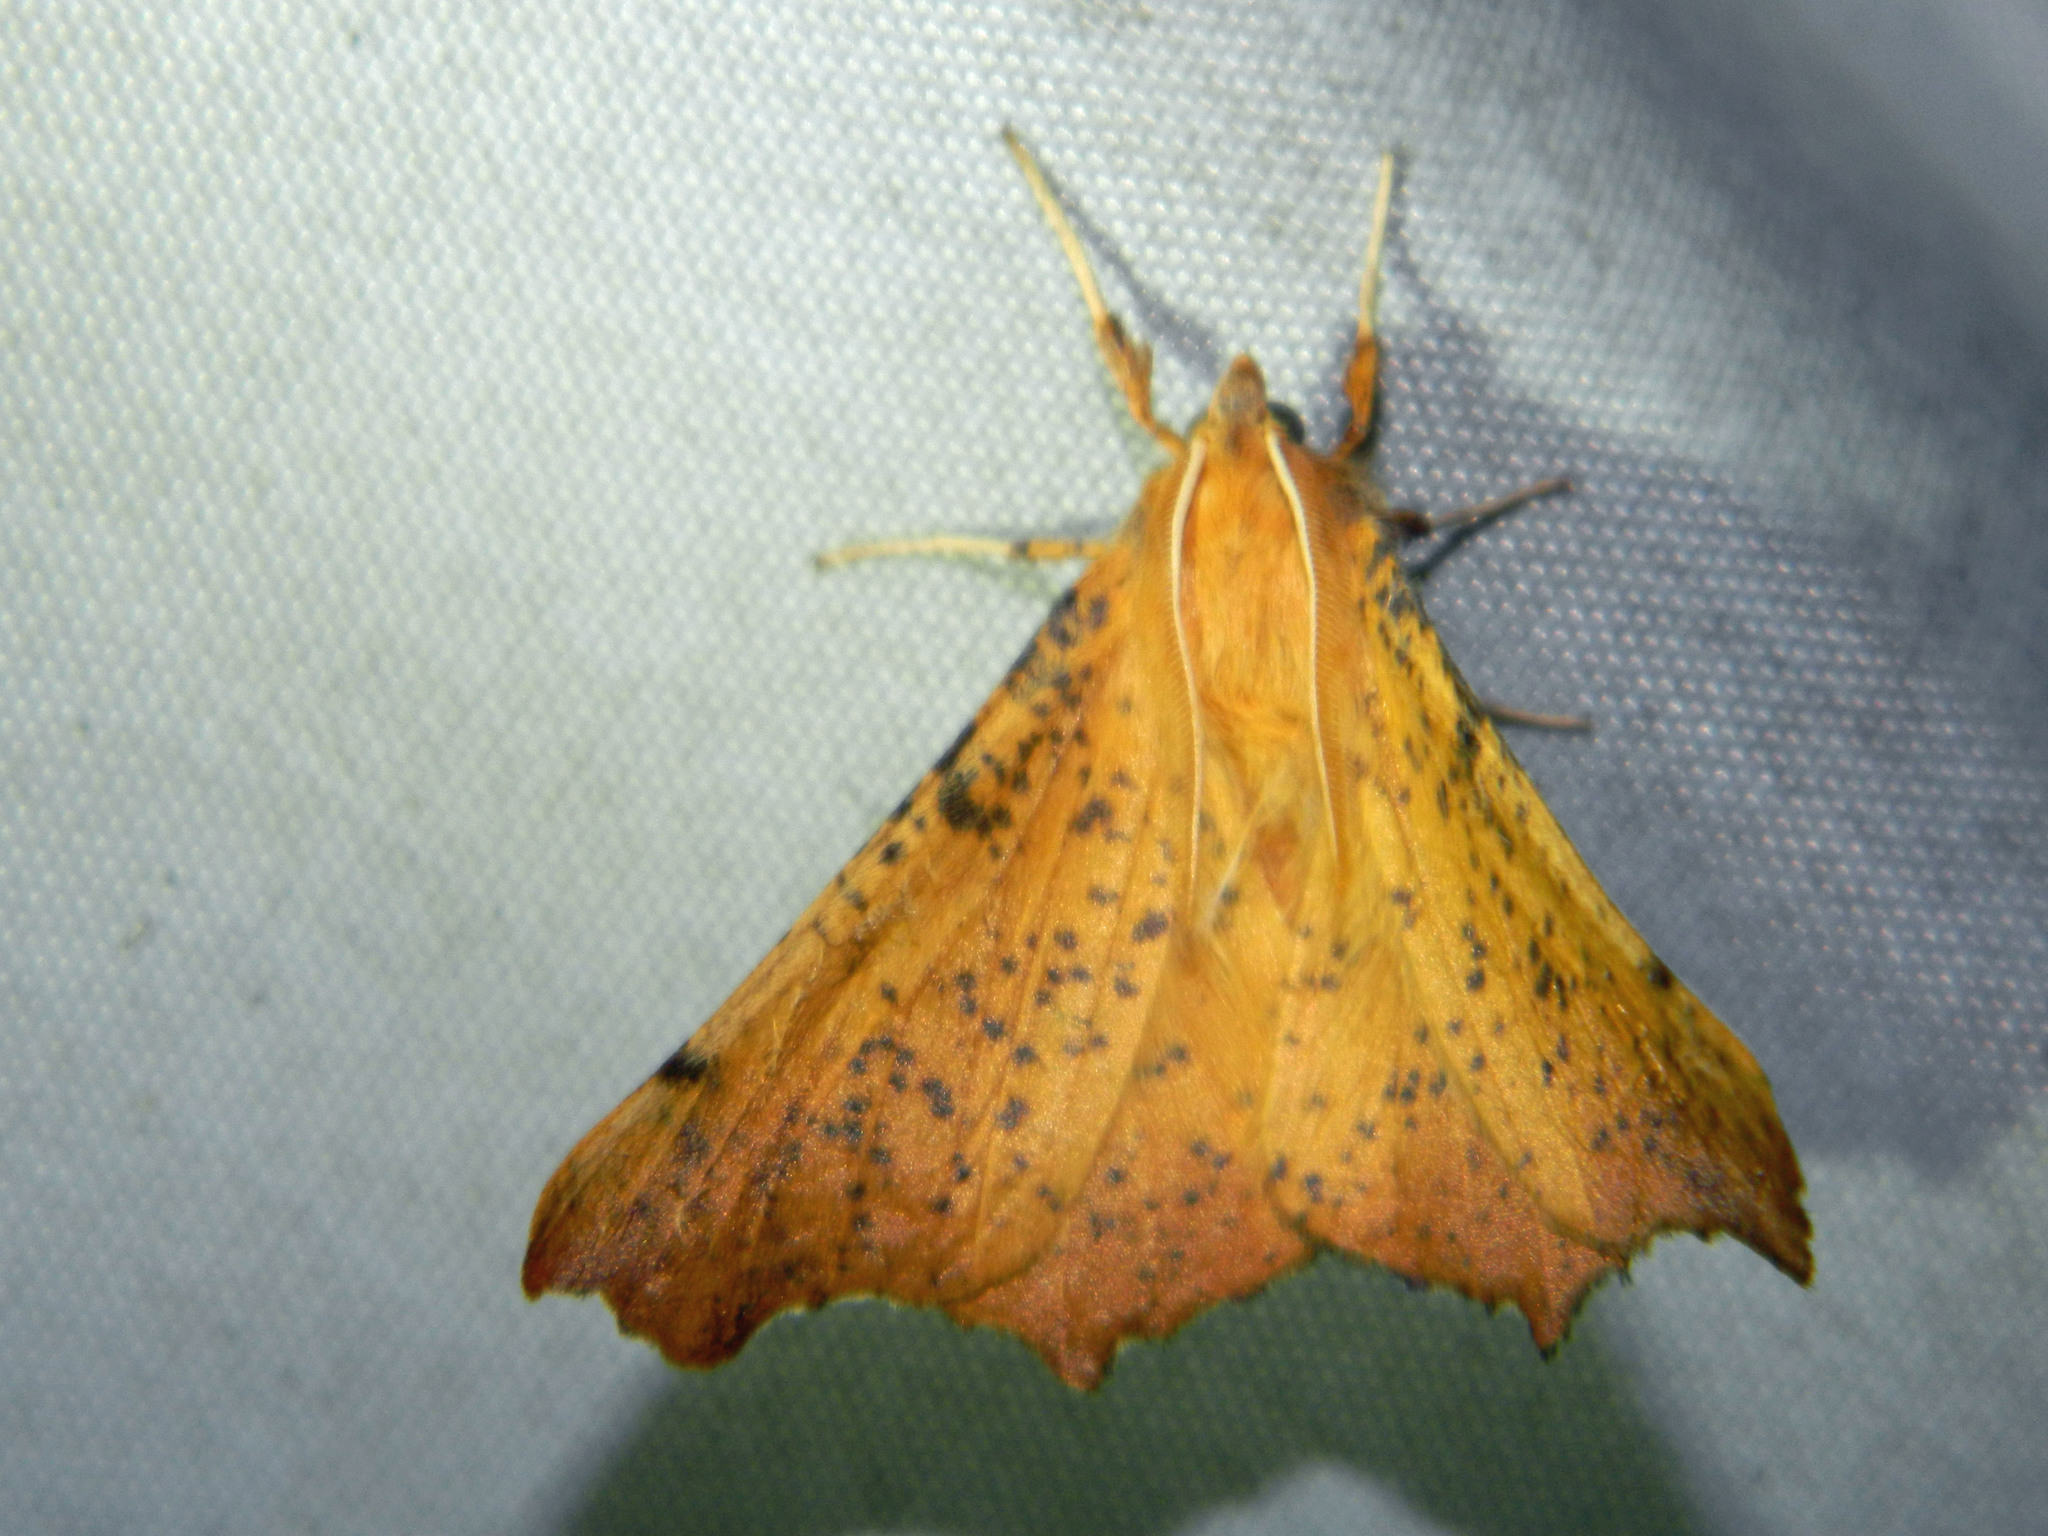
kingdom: Animalia
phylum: Arthropoda
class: Insecta
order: Lepidoptera
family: Geometridae
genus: Ennomos
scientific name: Ennomos magnaria
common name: Maple spanworm
